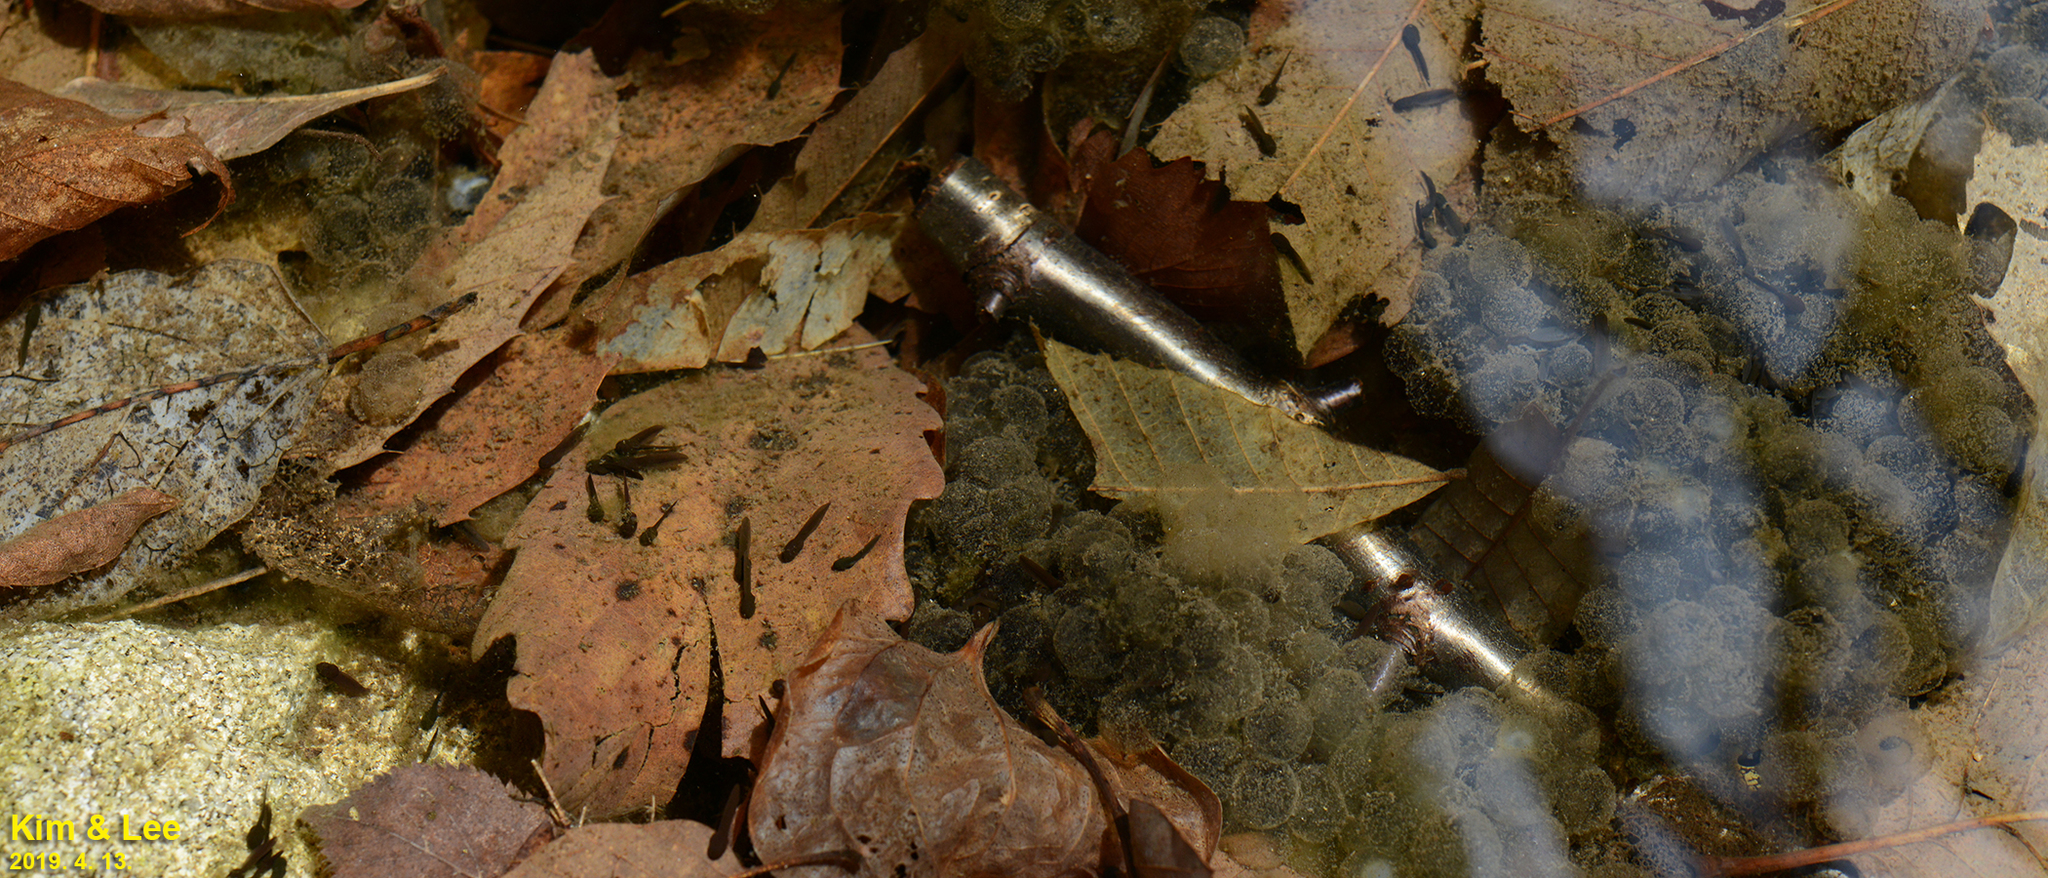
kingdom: Animalia
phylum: Chordata
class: Amphibia
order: Anura
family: Ranidae
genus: Rana
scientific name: Rana huanrenensis
